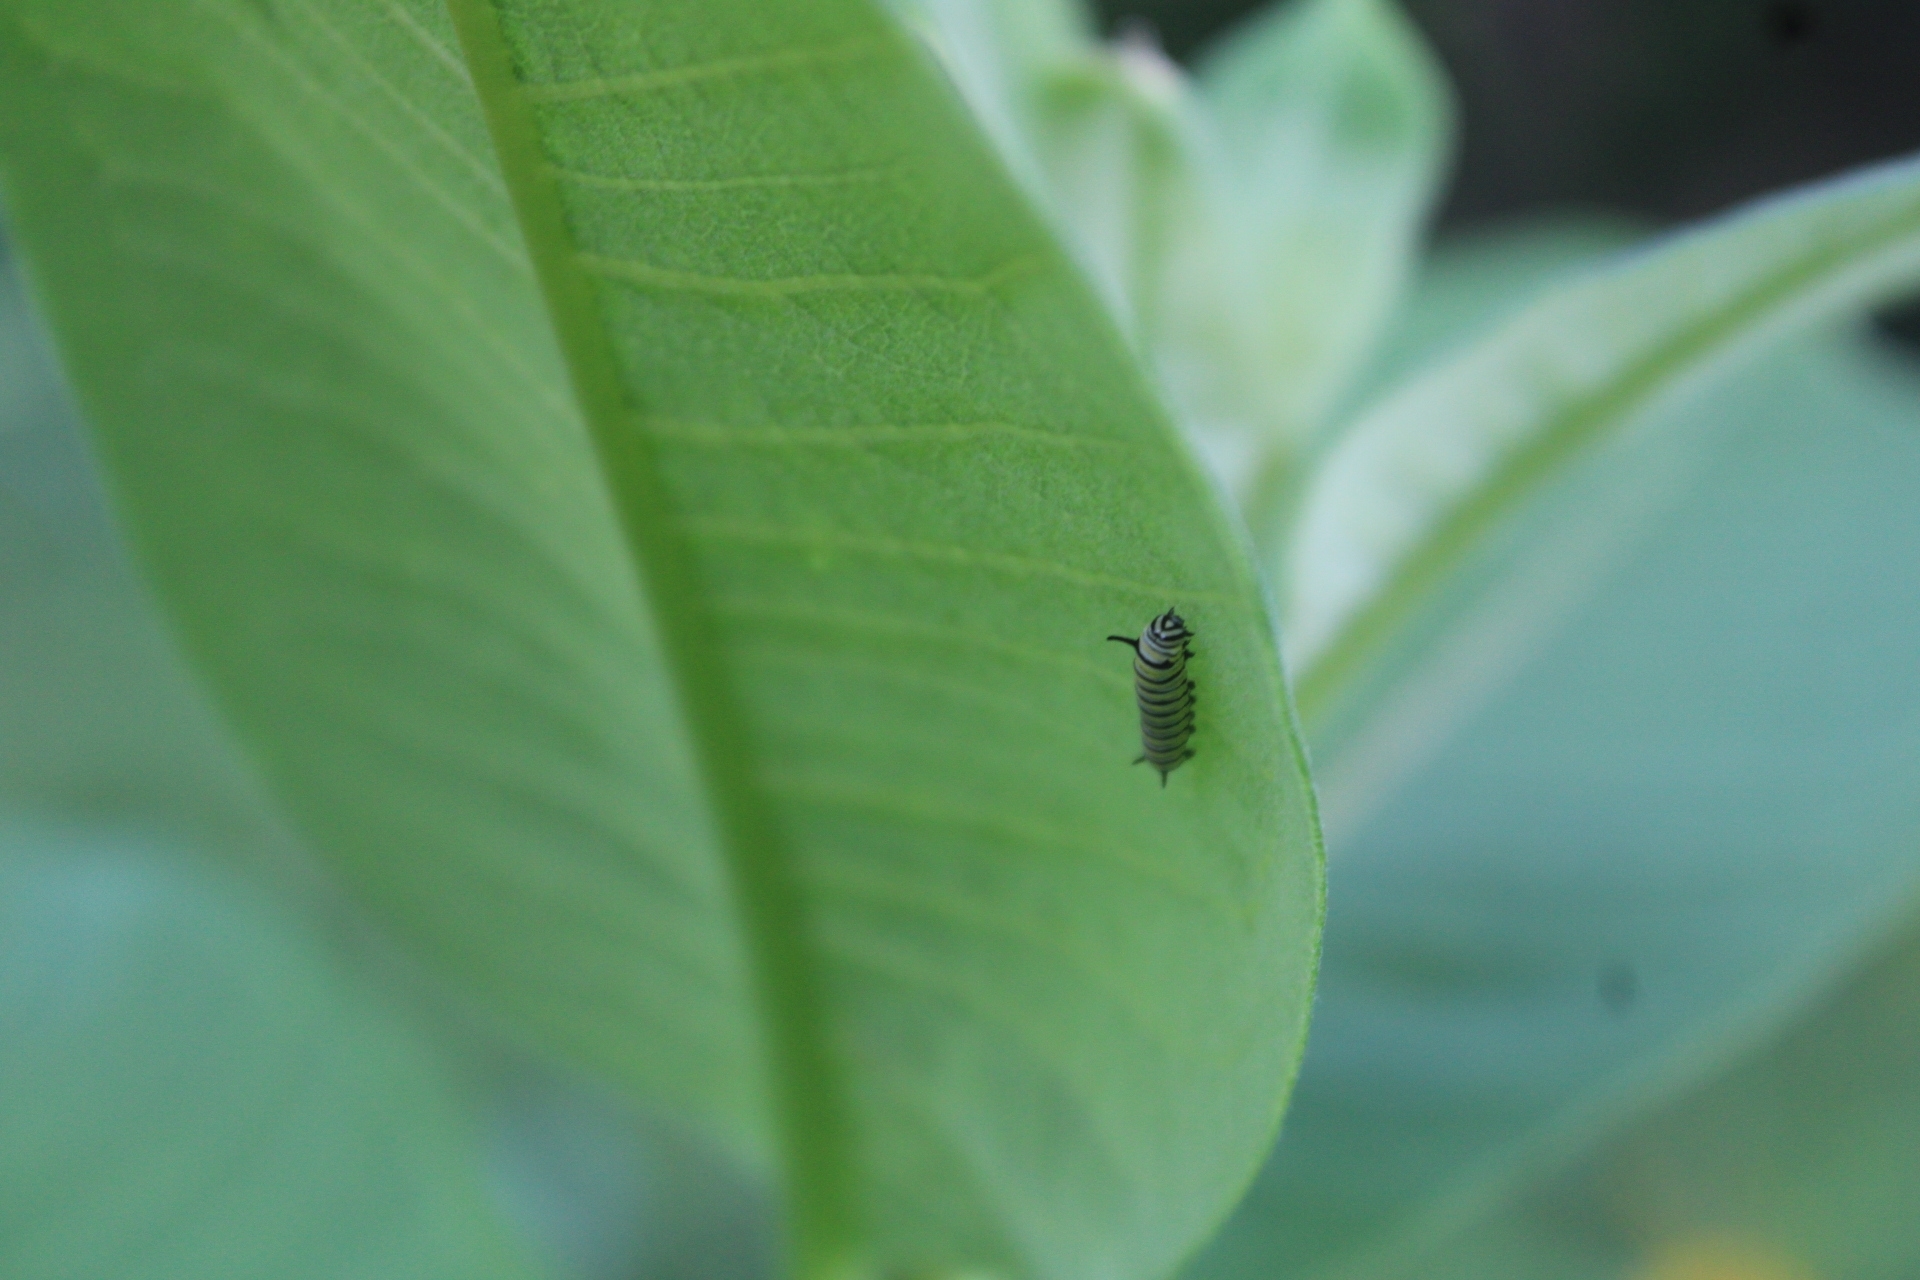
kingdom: Animalia
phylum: Arthropoda
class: Insecta
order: Lepidoptera
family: Nymphalidae
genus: Danaus
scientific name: Danaus plexippus
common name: Monarch
